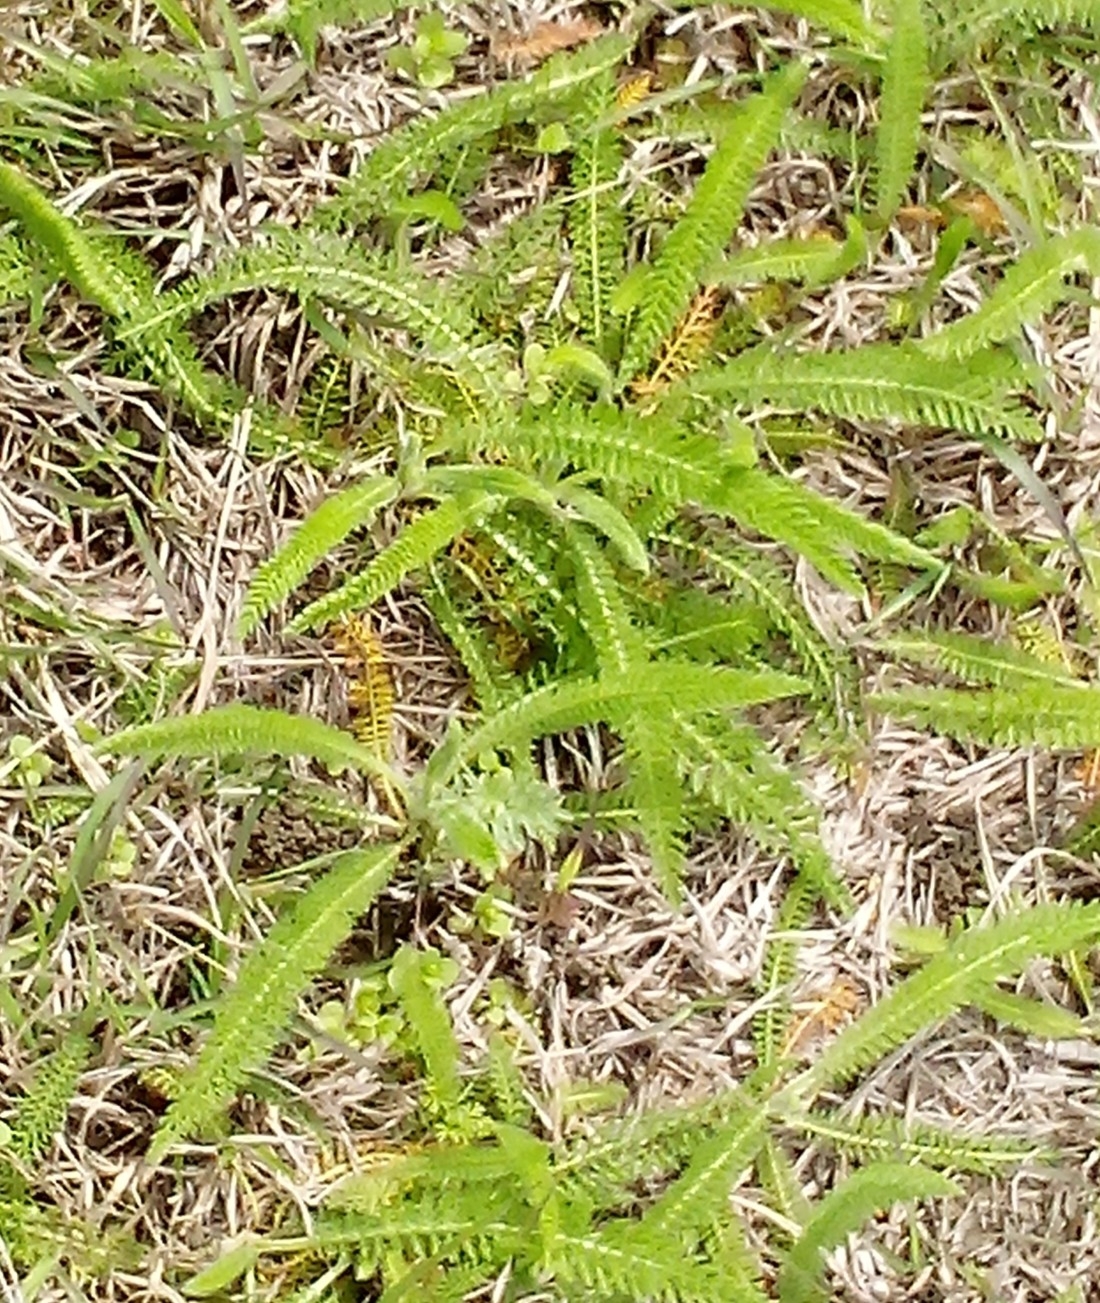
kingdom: Plantae
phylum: Tracheophyta
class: Magnoliopsida
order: Asterales
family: Asteraceae
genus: Achillea
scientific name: Achillea millefolium
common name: Yarrow
